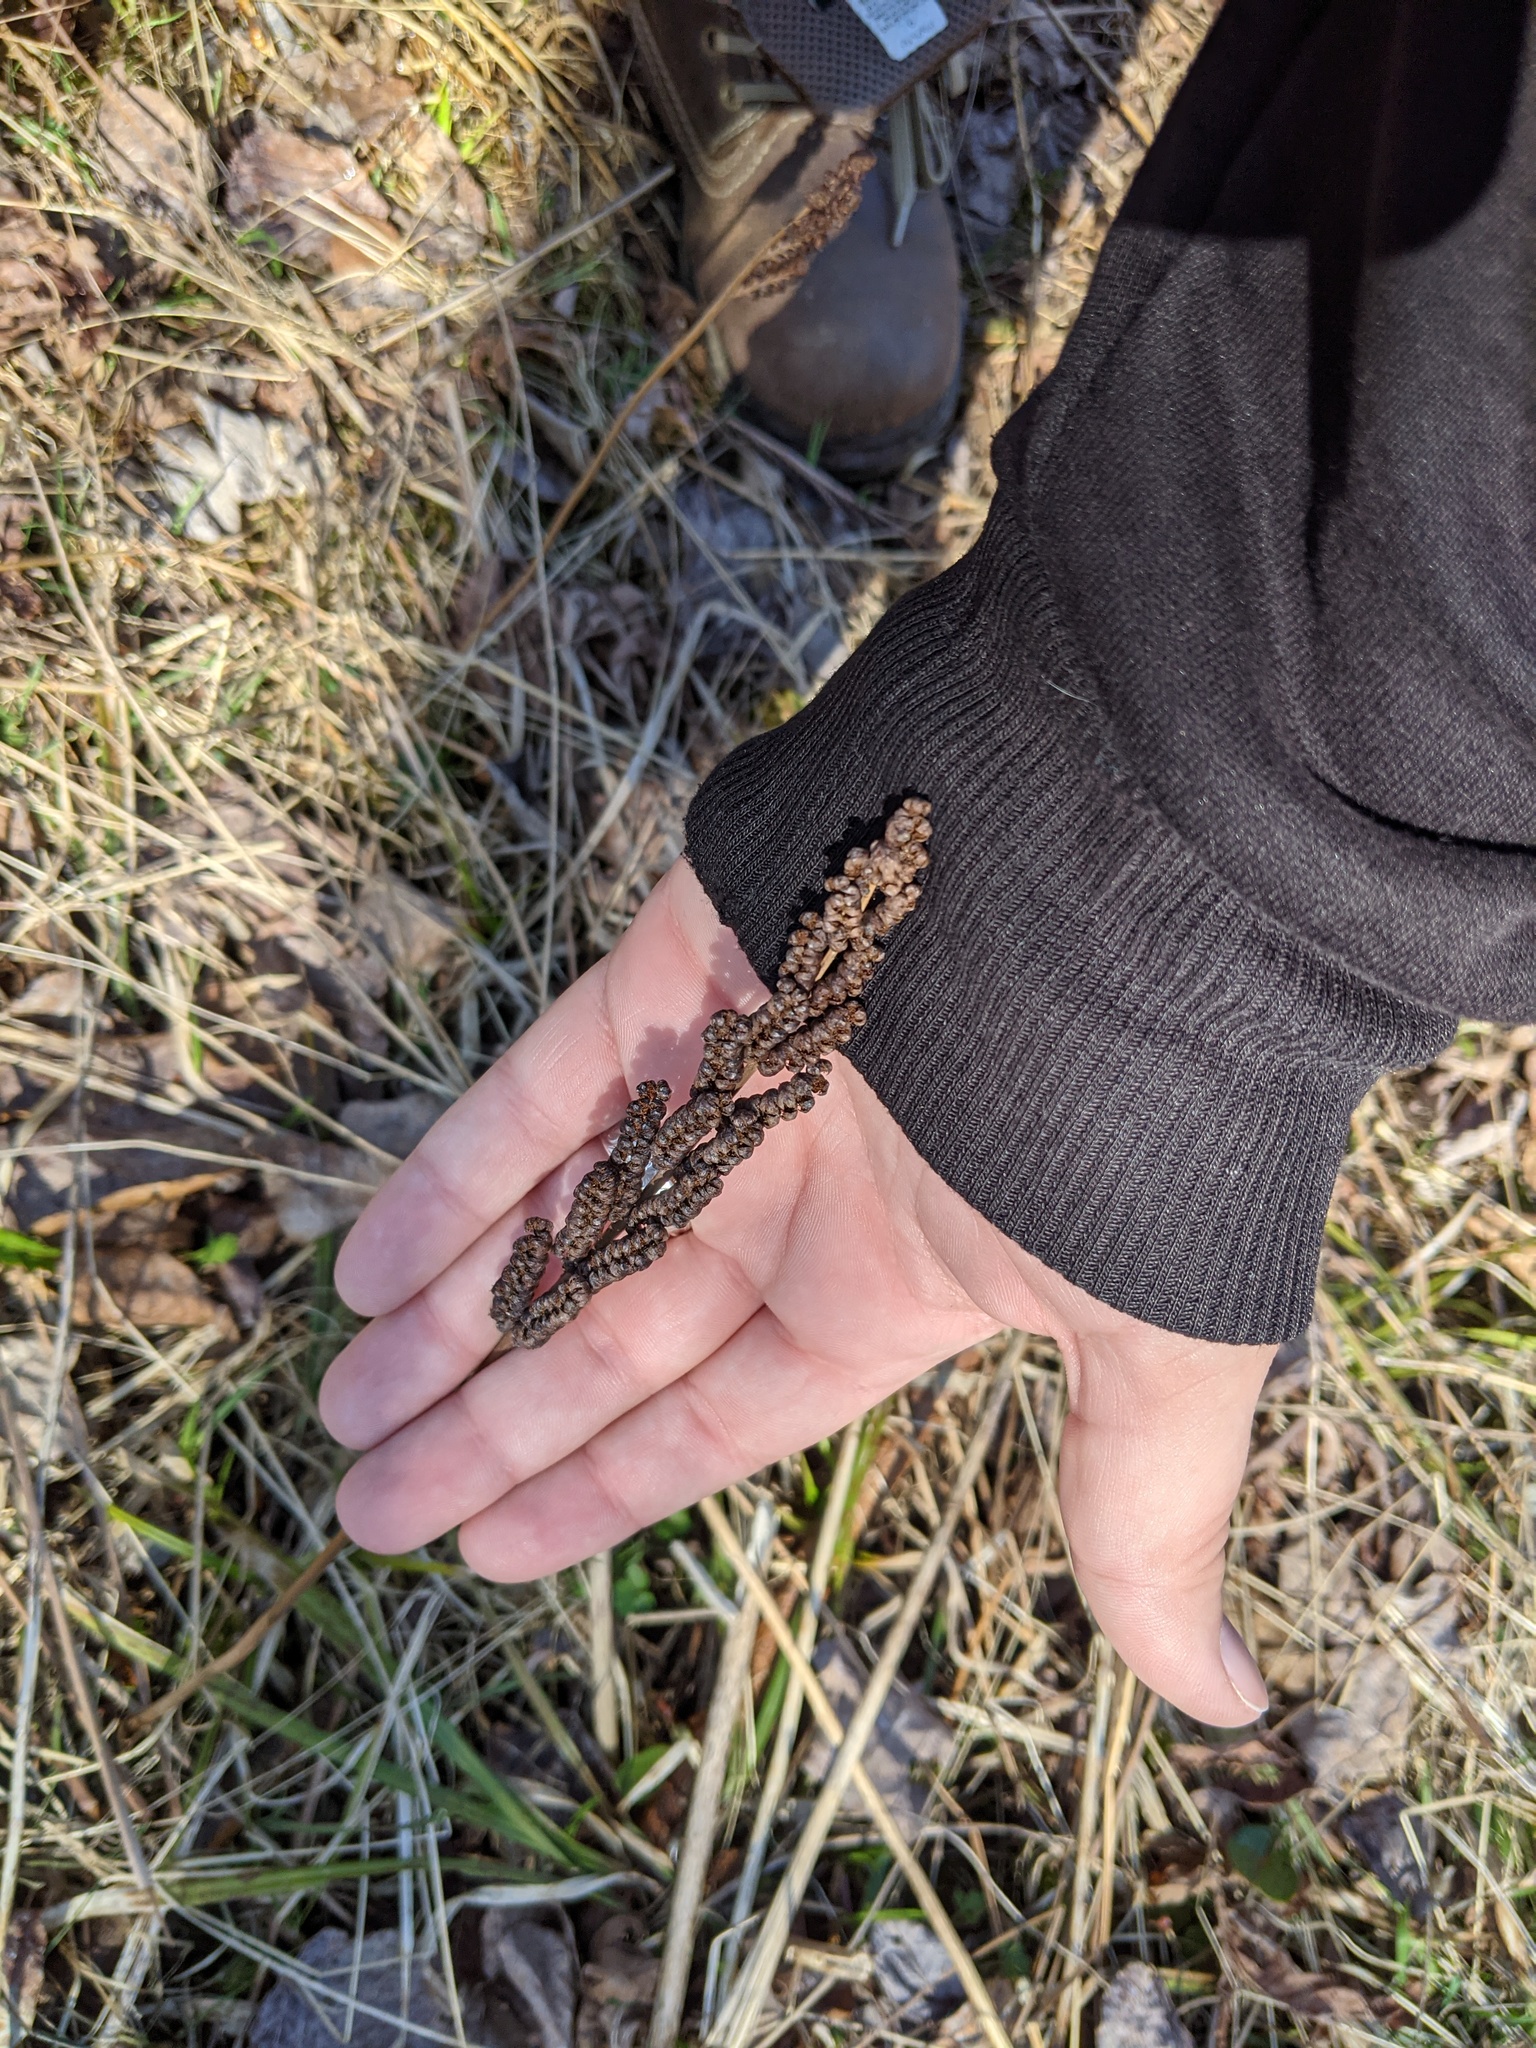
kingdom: Plantae
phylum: Tracheophyta
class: Polypodiopsida
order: Polypodiales
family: Onocleaceae
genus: Onoclea
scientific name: Onoclea sensibilis
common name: Sensitive fern
